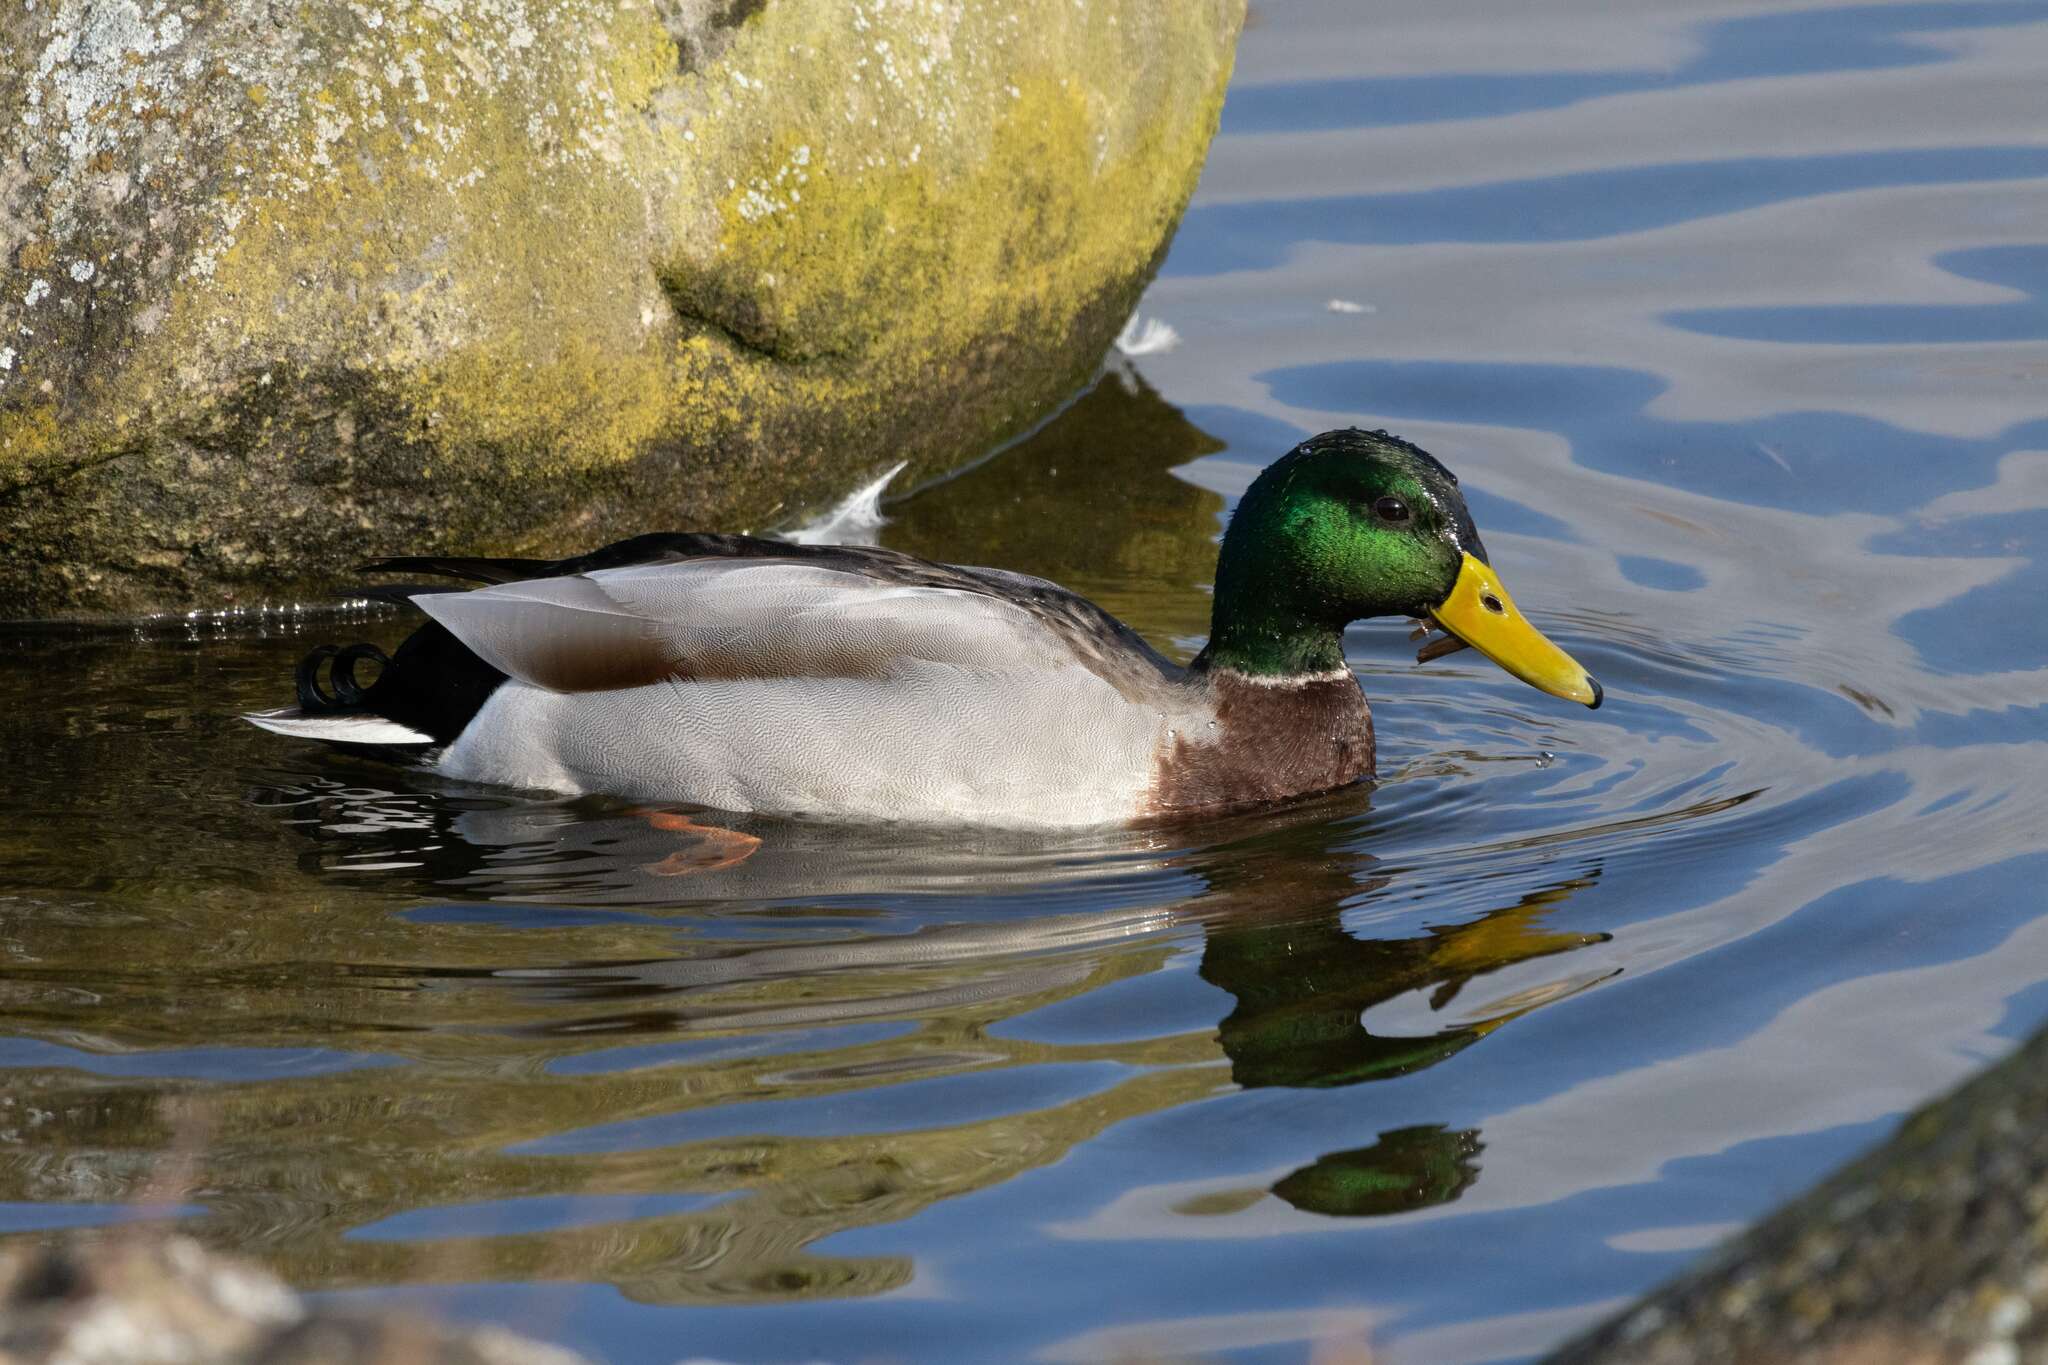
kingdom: Animalia
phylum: Chordata
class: Aves
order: Anseriformes
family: Anatidae
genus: Anas
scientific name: Anas platyrhynchos
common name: Mallard
